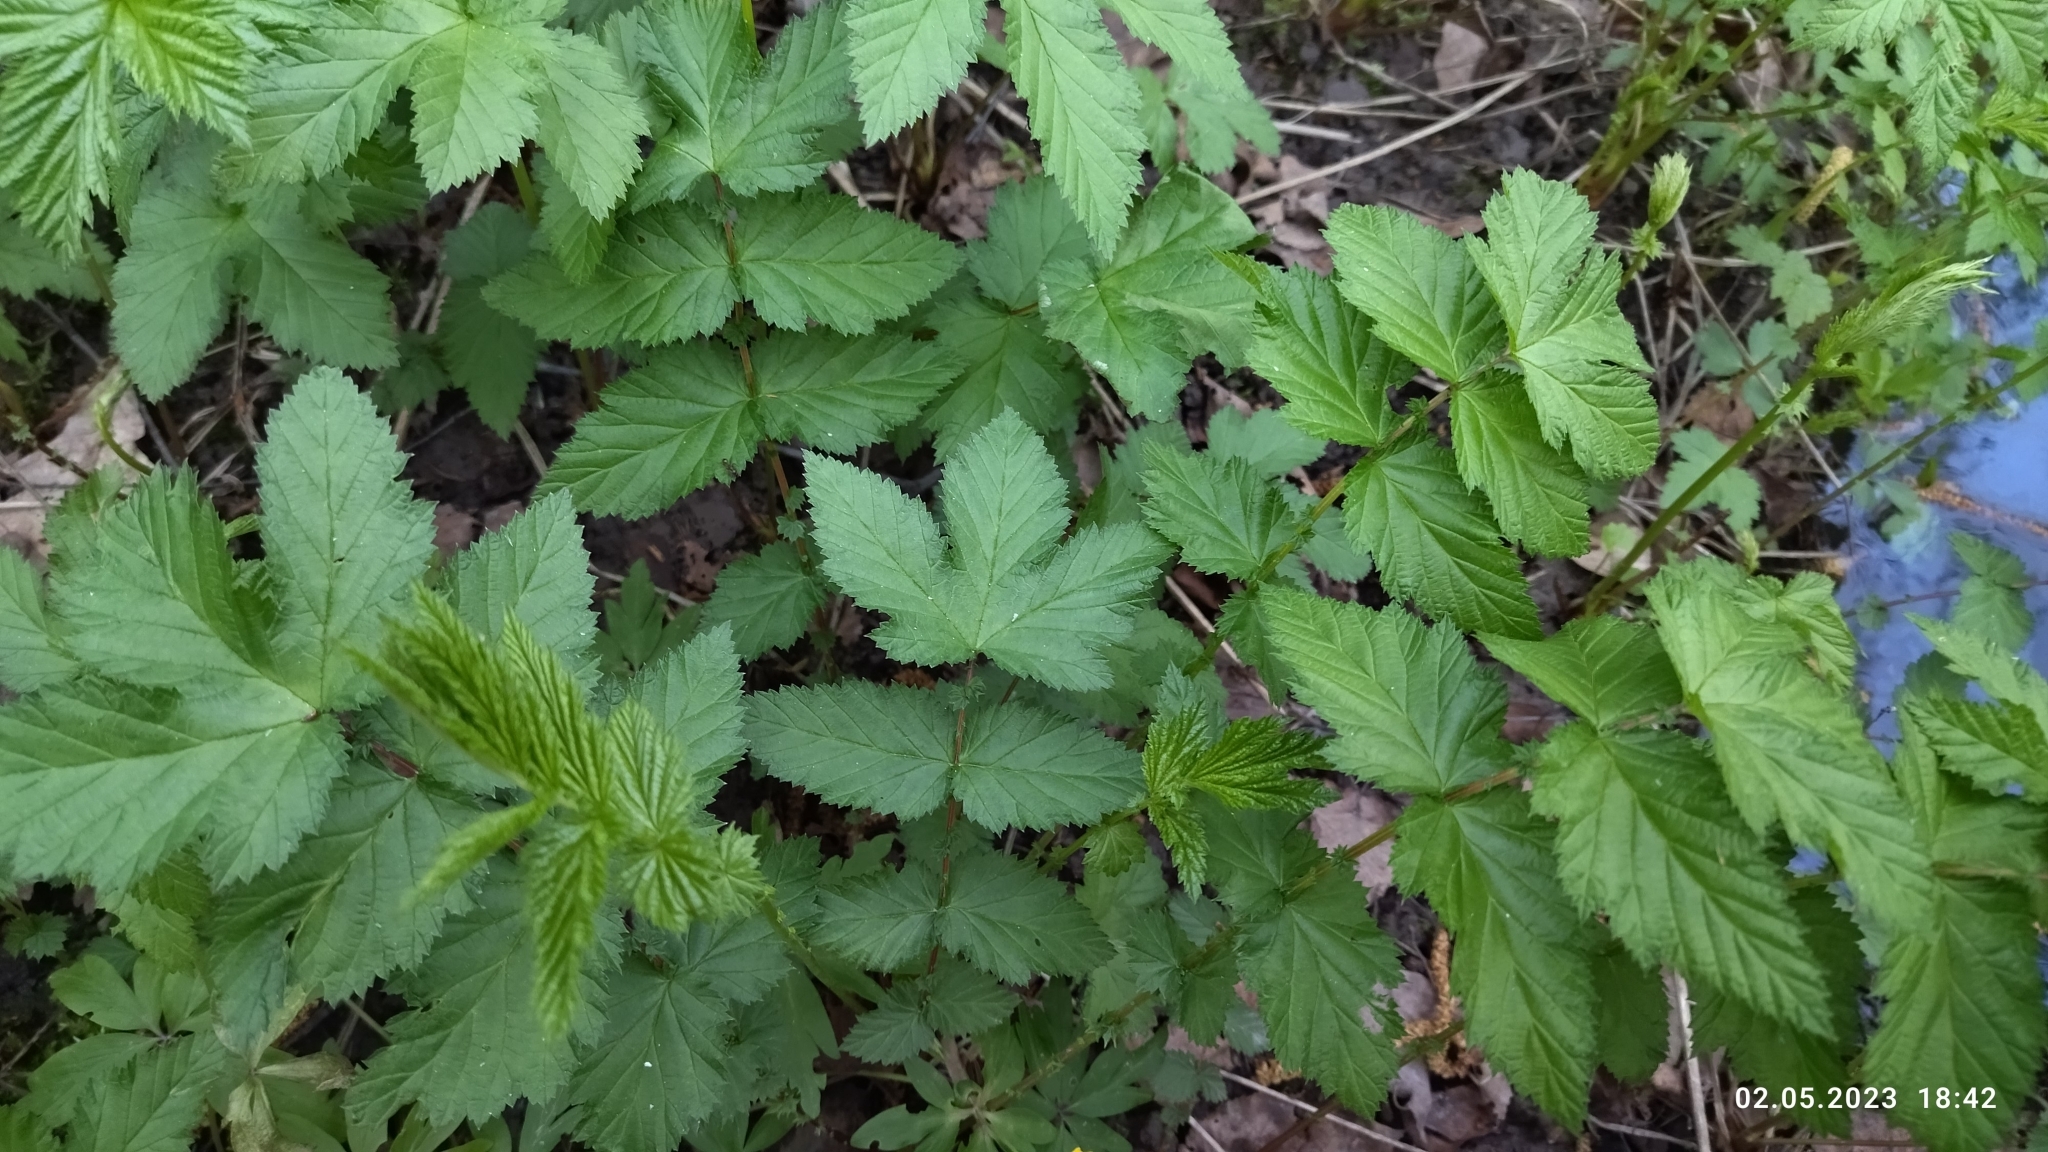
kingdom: Plantae
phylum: Tracheophyta
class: Magnoliopsida
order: Rosales
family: Rosaceae
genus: Filipendula
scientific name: Filipendula ulmaria
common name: Meadowsweet
